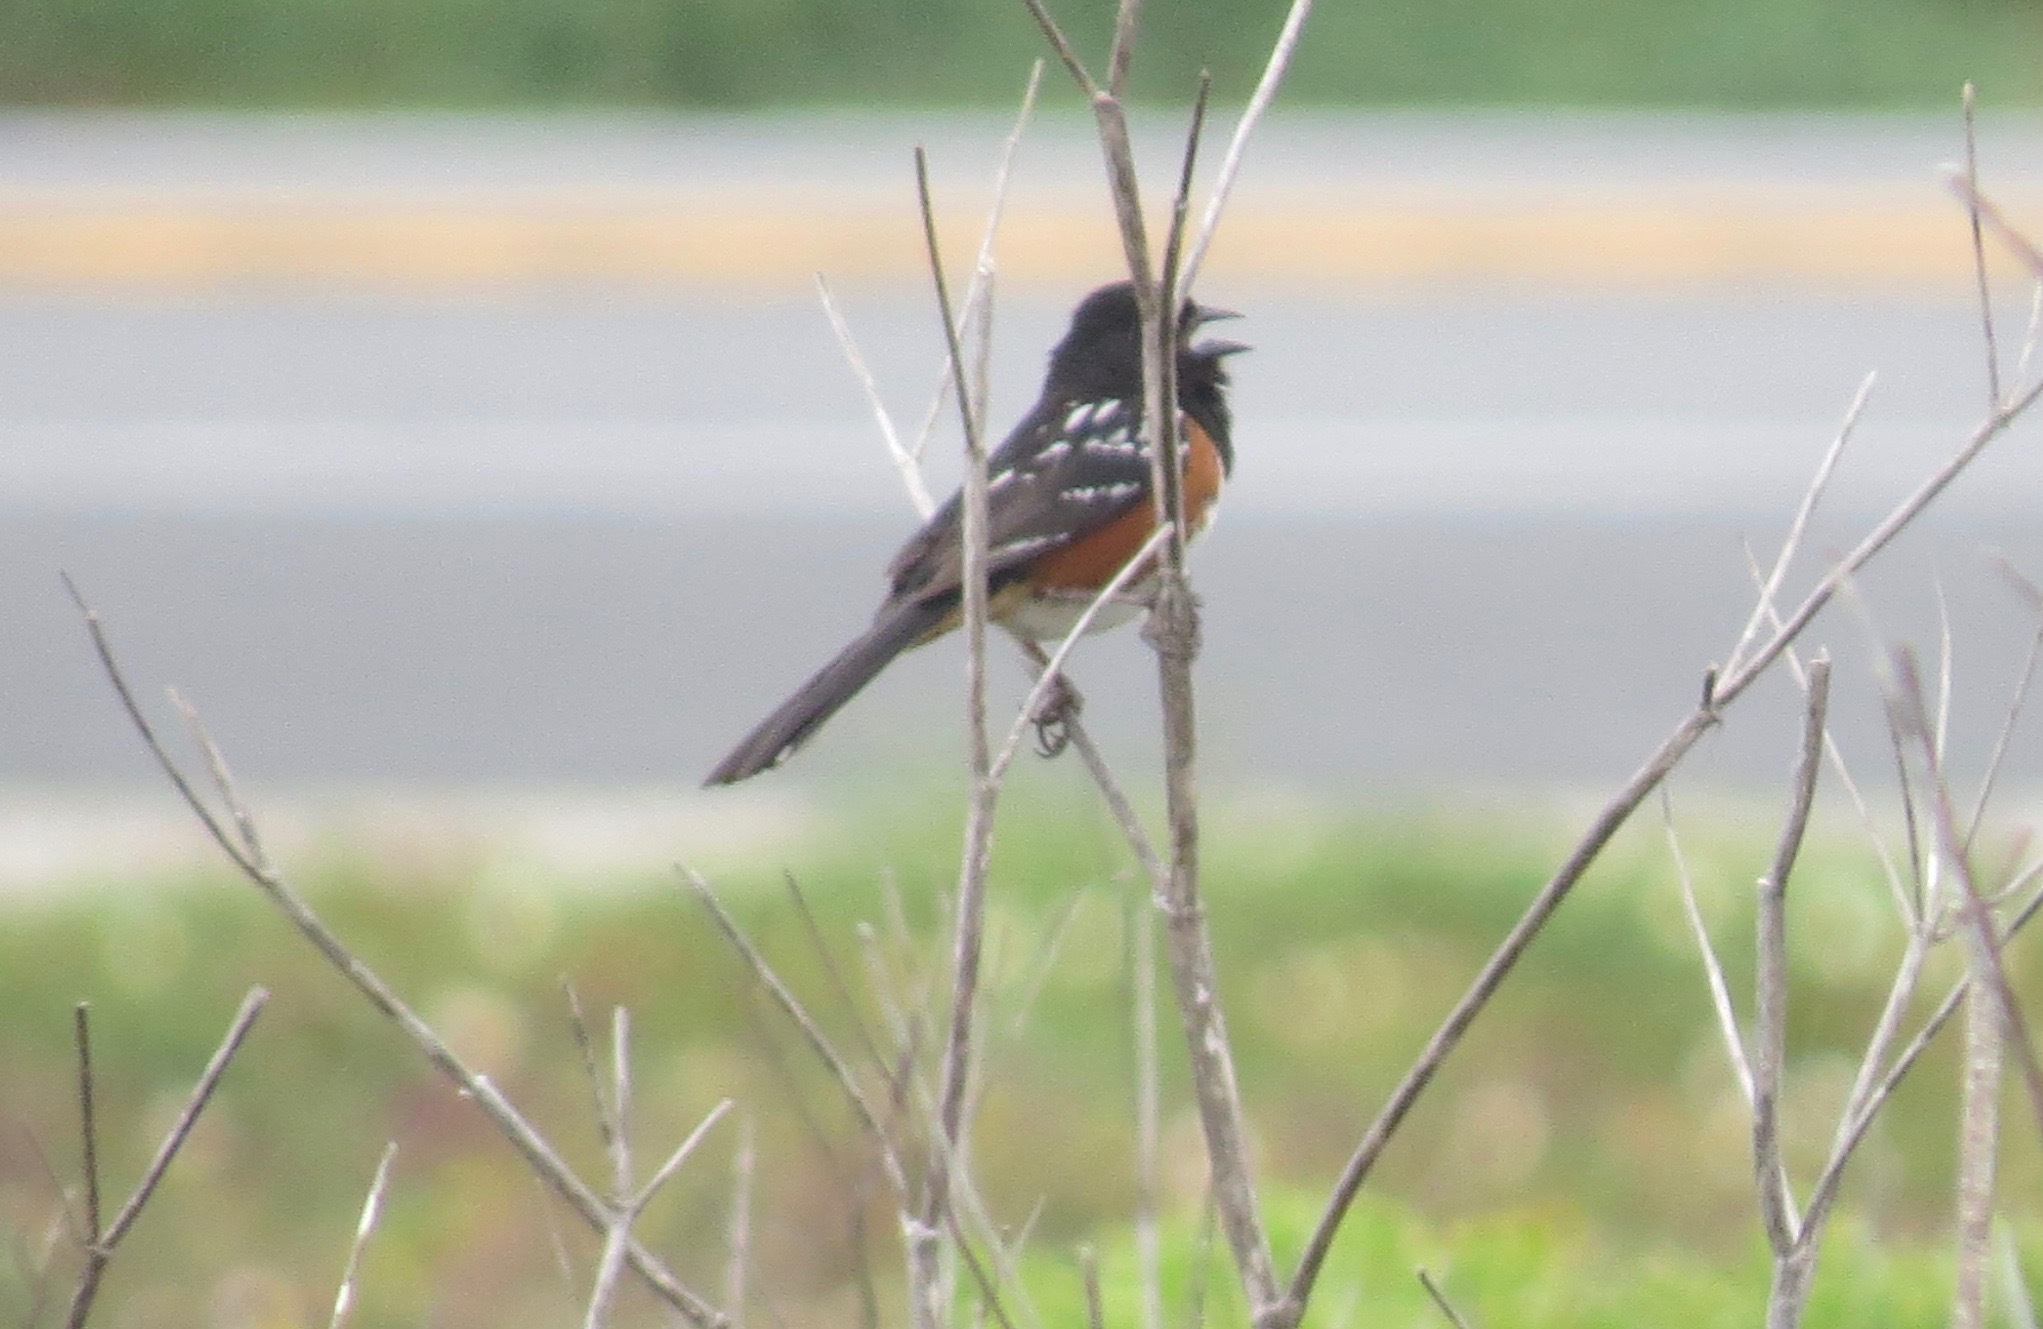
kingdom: Animalia
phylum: Chordata
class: Aves
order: Passeriformes
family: Passerellidae
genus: Pipilo
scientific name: Pipilo maculatus
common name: Spotted towhee
